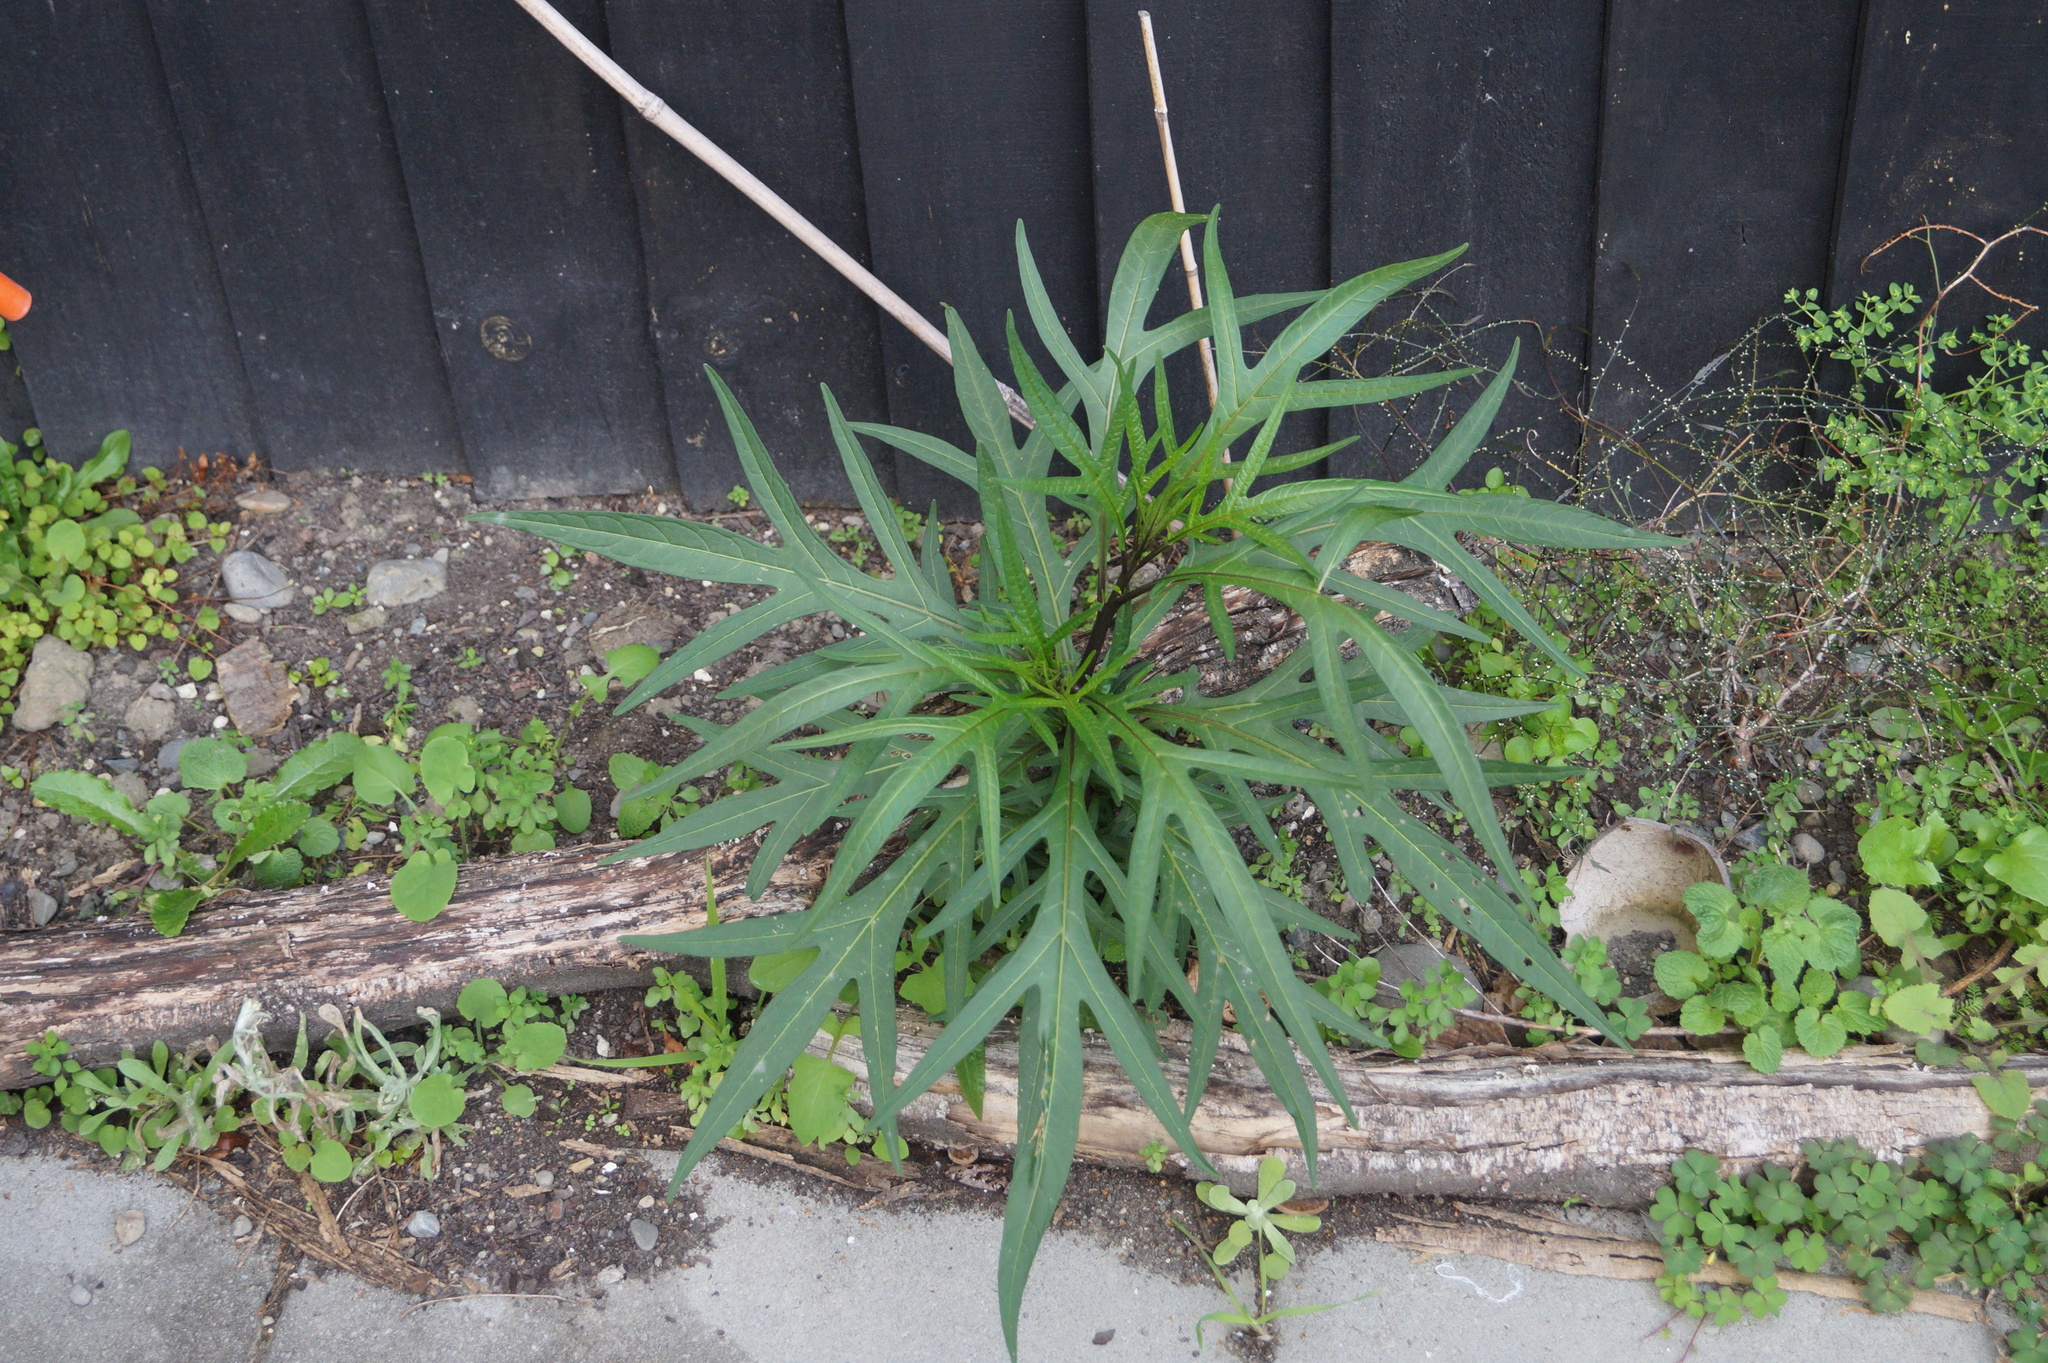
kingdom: Plantae
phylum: Tracheophyta
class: Magnoliopsida
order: Solanales
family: Solanaceae
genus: Solanum
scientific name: Solanum laciniatum
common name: Kangaroo-apple
